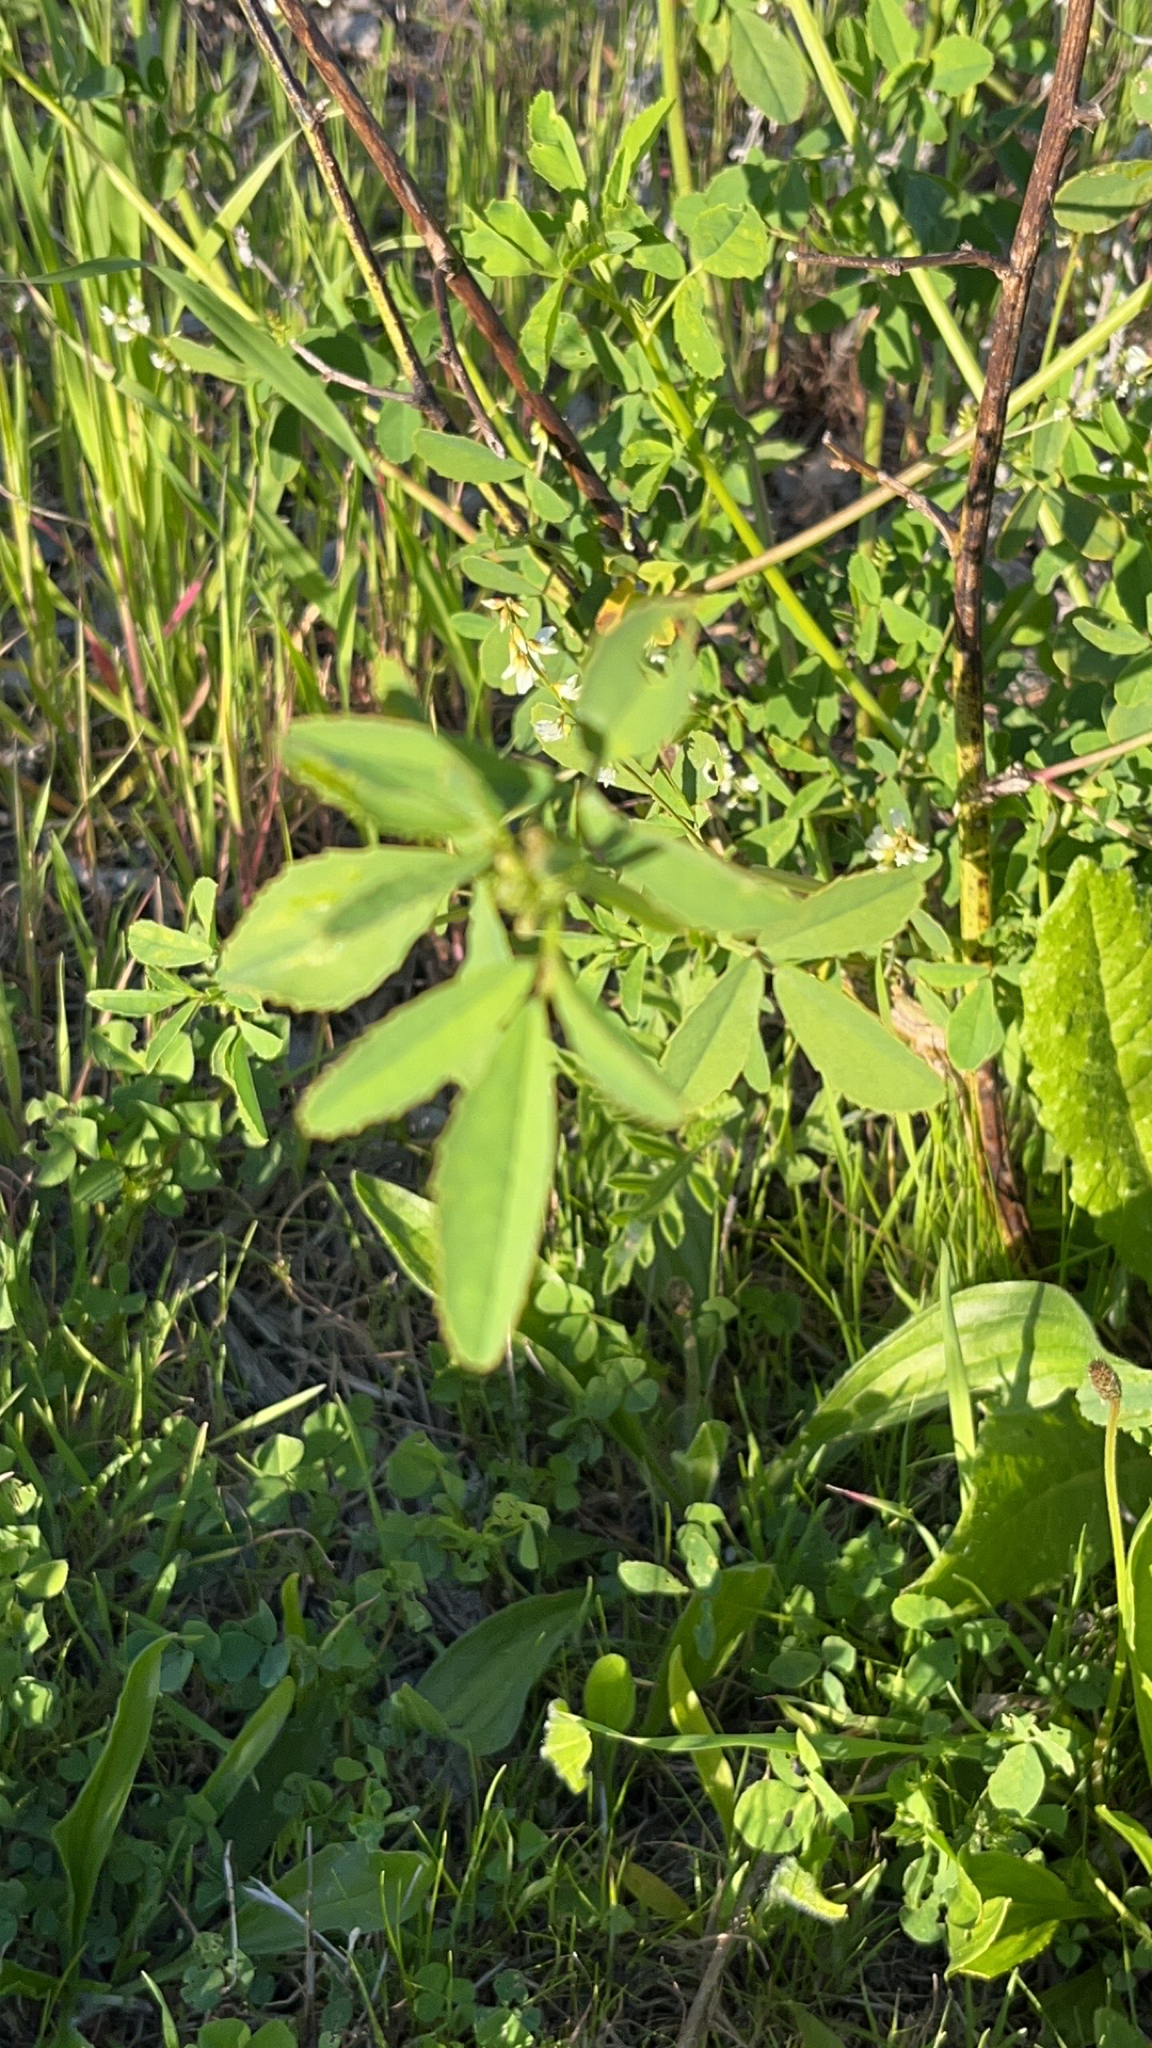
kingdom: Plantae
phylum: Tracheophyta
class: Magnoliopsida
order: Fabales
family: Fabaceae
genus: Melilotus
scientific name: Melilotus albus
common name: White melilot
